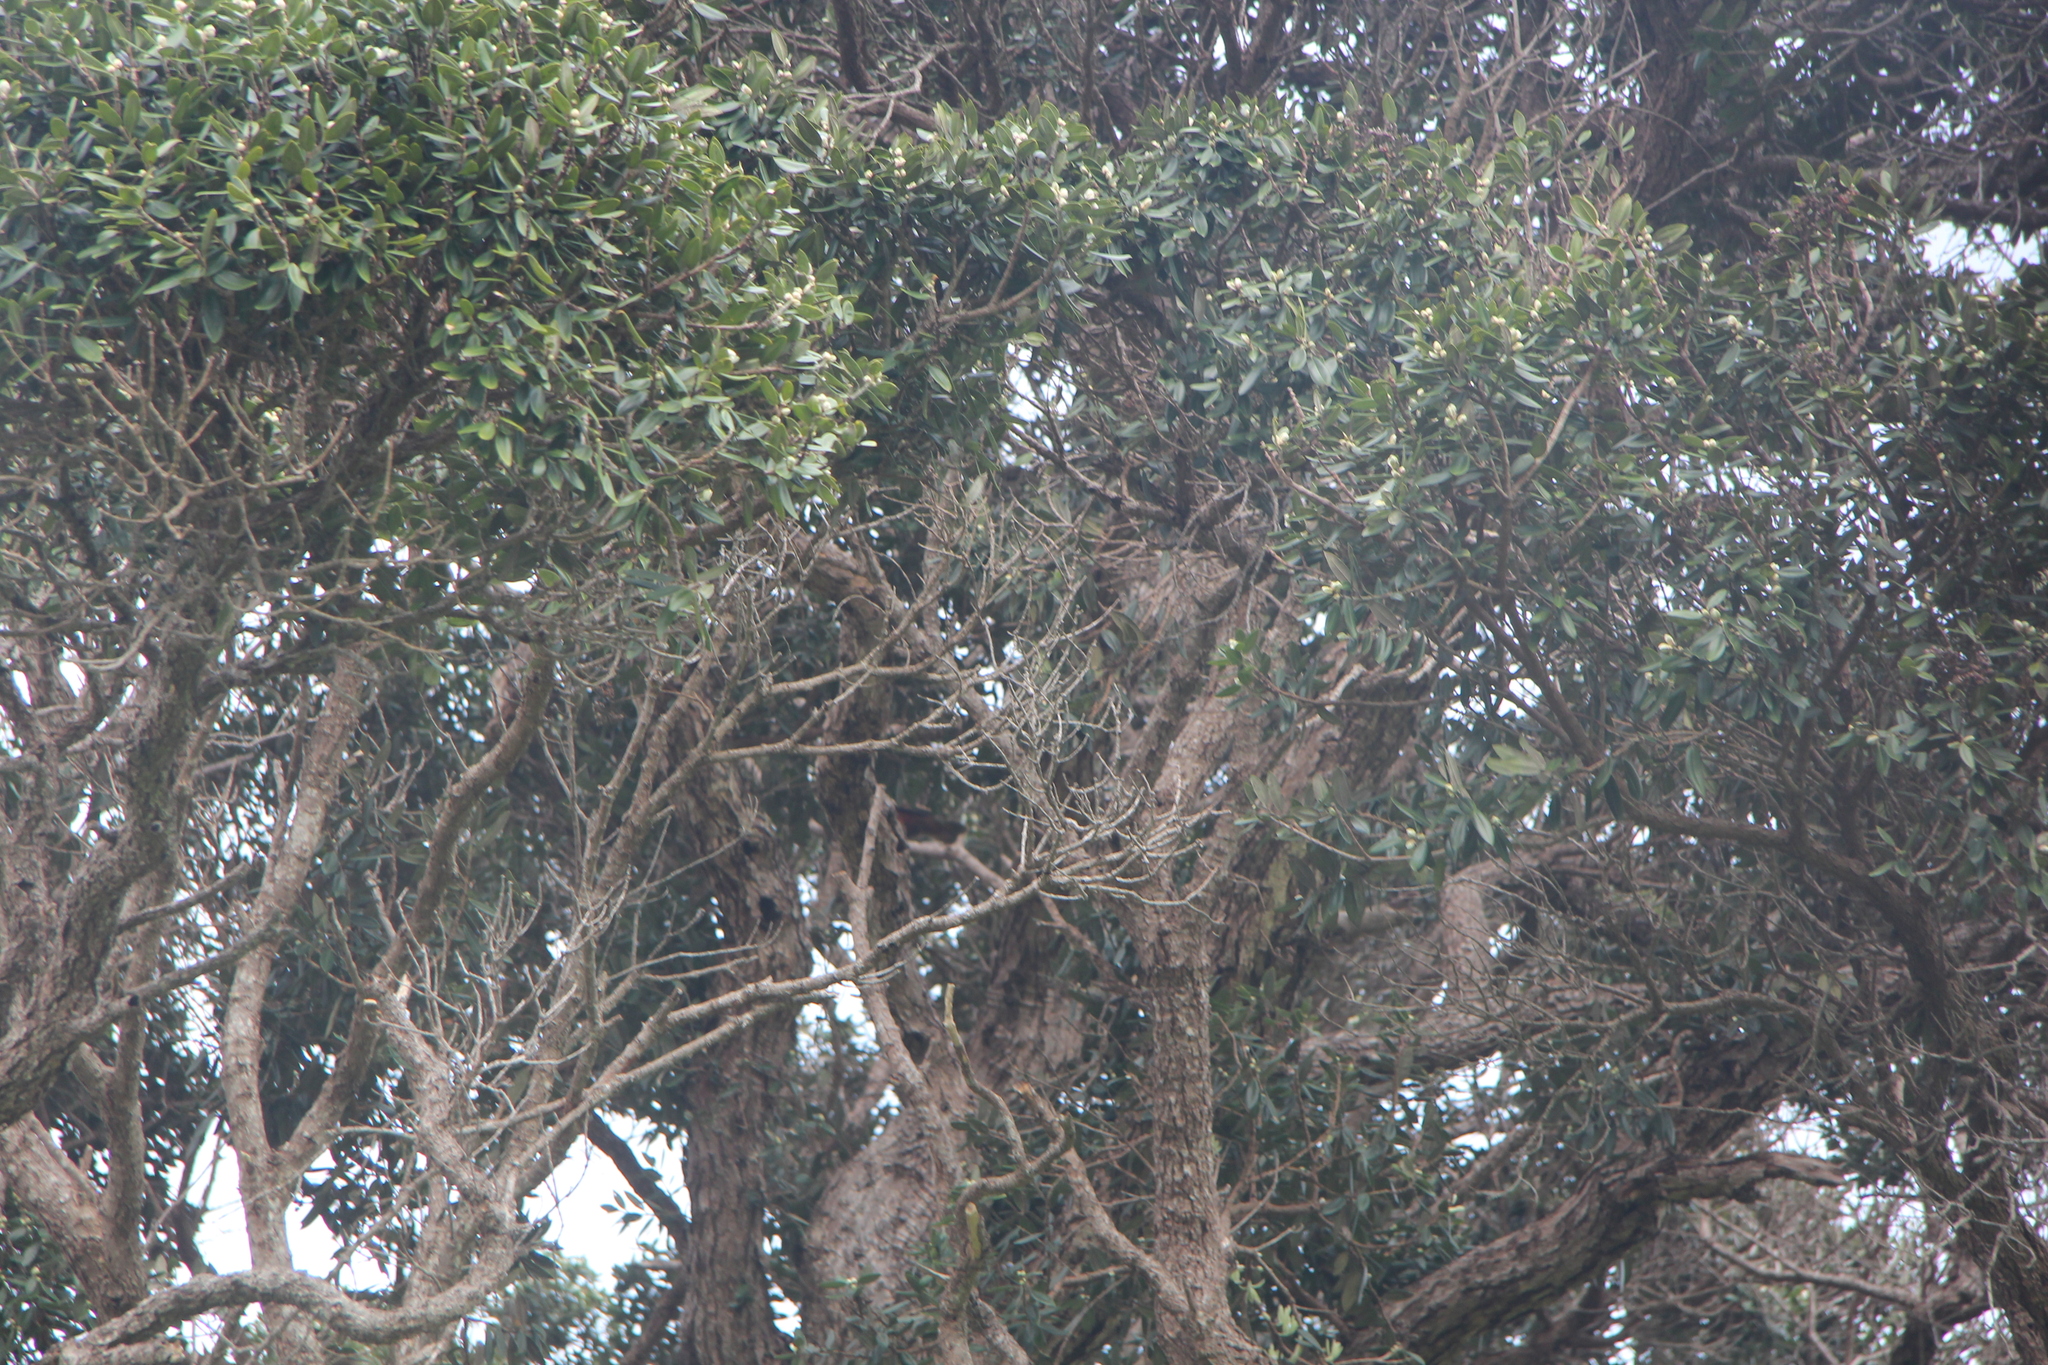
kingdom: Animalia
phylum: Chordata
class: Aves
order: Psittaciformes
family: Psittacidae
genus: Nestor
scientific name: Nestor meridionalis
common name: New zealand kaka
